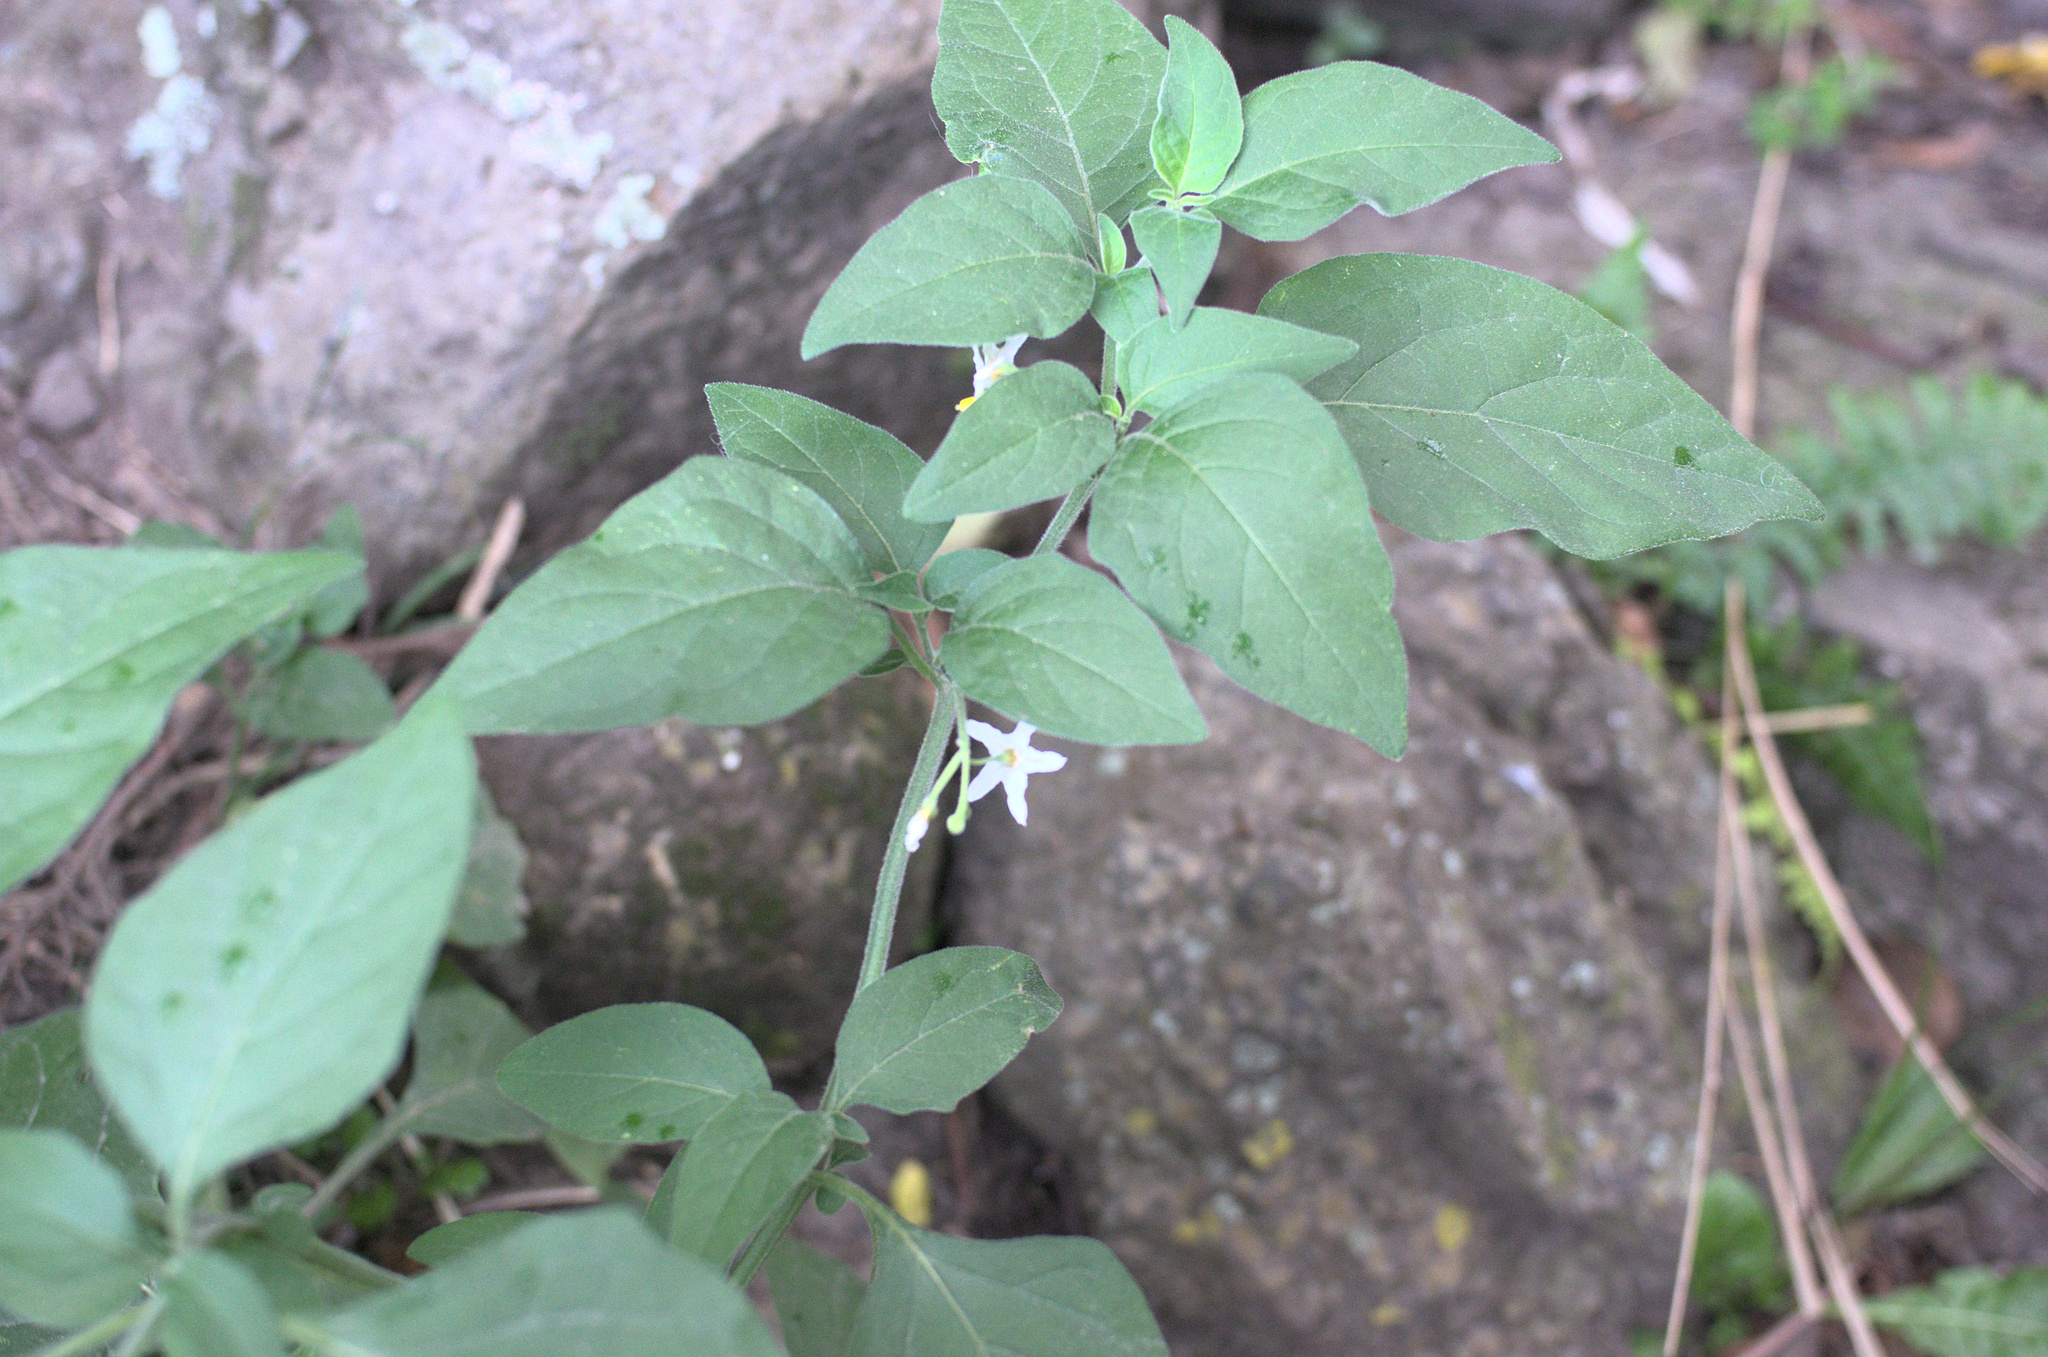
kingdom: Plantae
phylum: Tracheophyta
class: Magnoliopsida
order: Solanales
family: Solanaceae
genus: Solanum
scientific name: Solanum chenopodioides
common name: Tall nightshade
